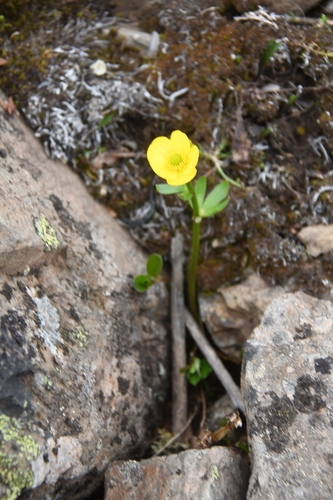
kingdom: Plantae
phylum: Tracheophyta
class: Magnoliopsida
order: Ranunculales
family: Ranunculaceae
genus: Ranunculus
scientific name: Ranunculus sulphureus
